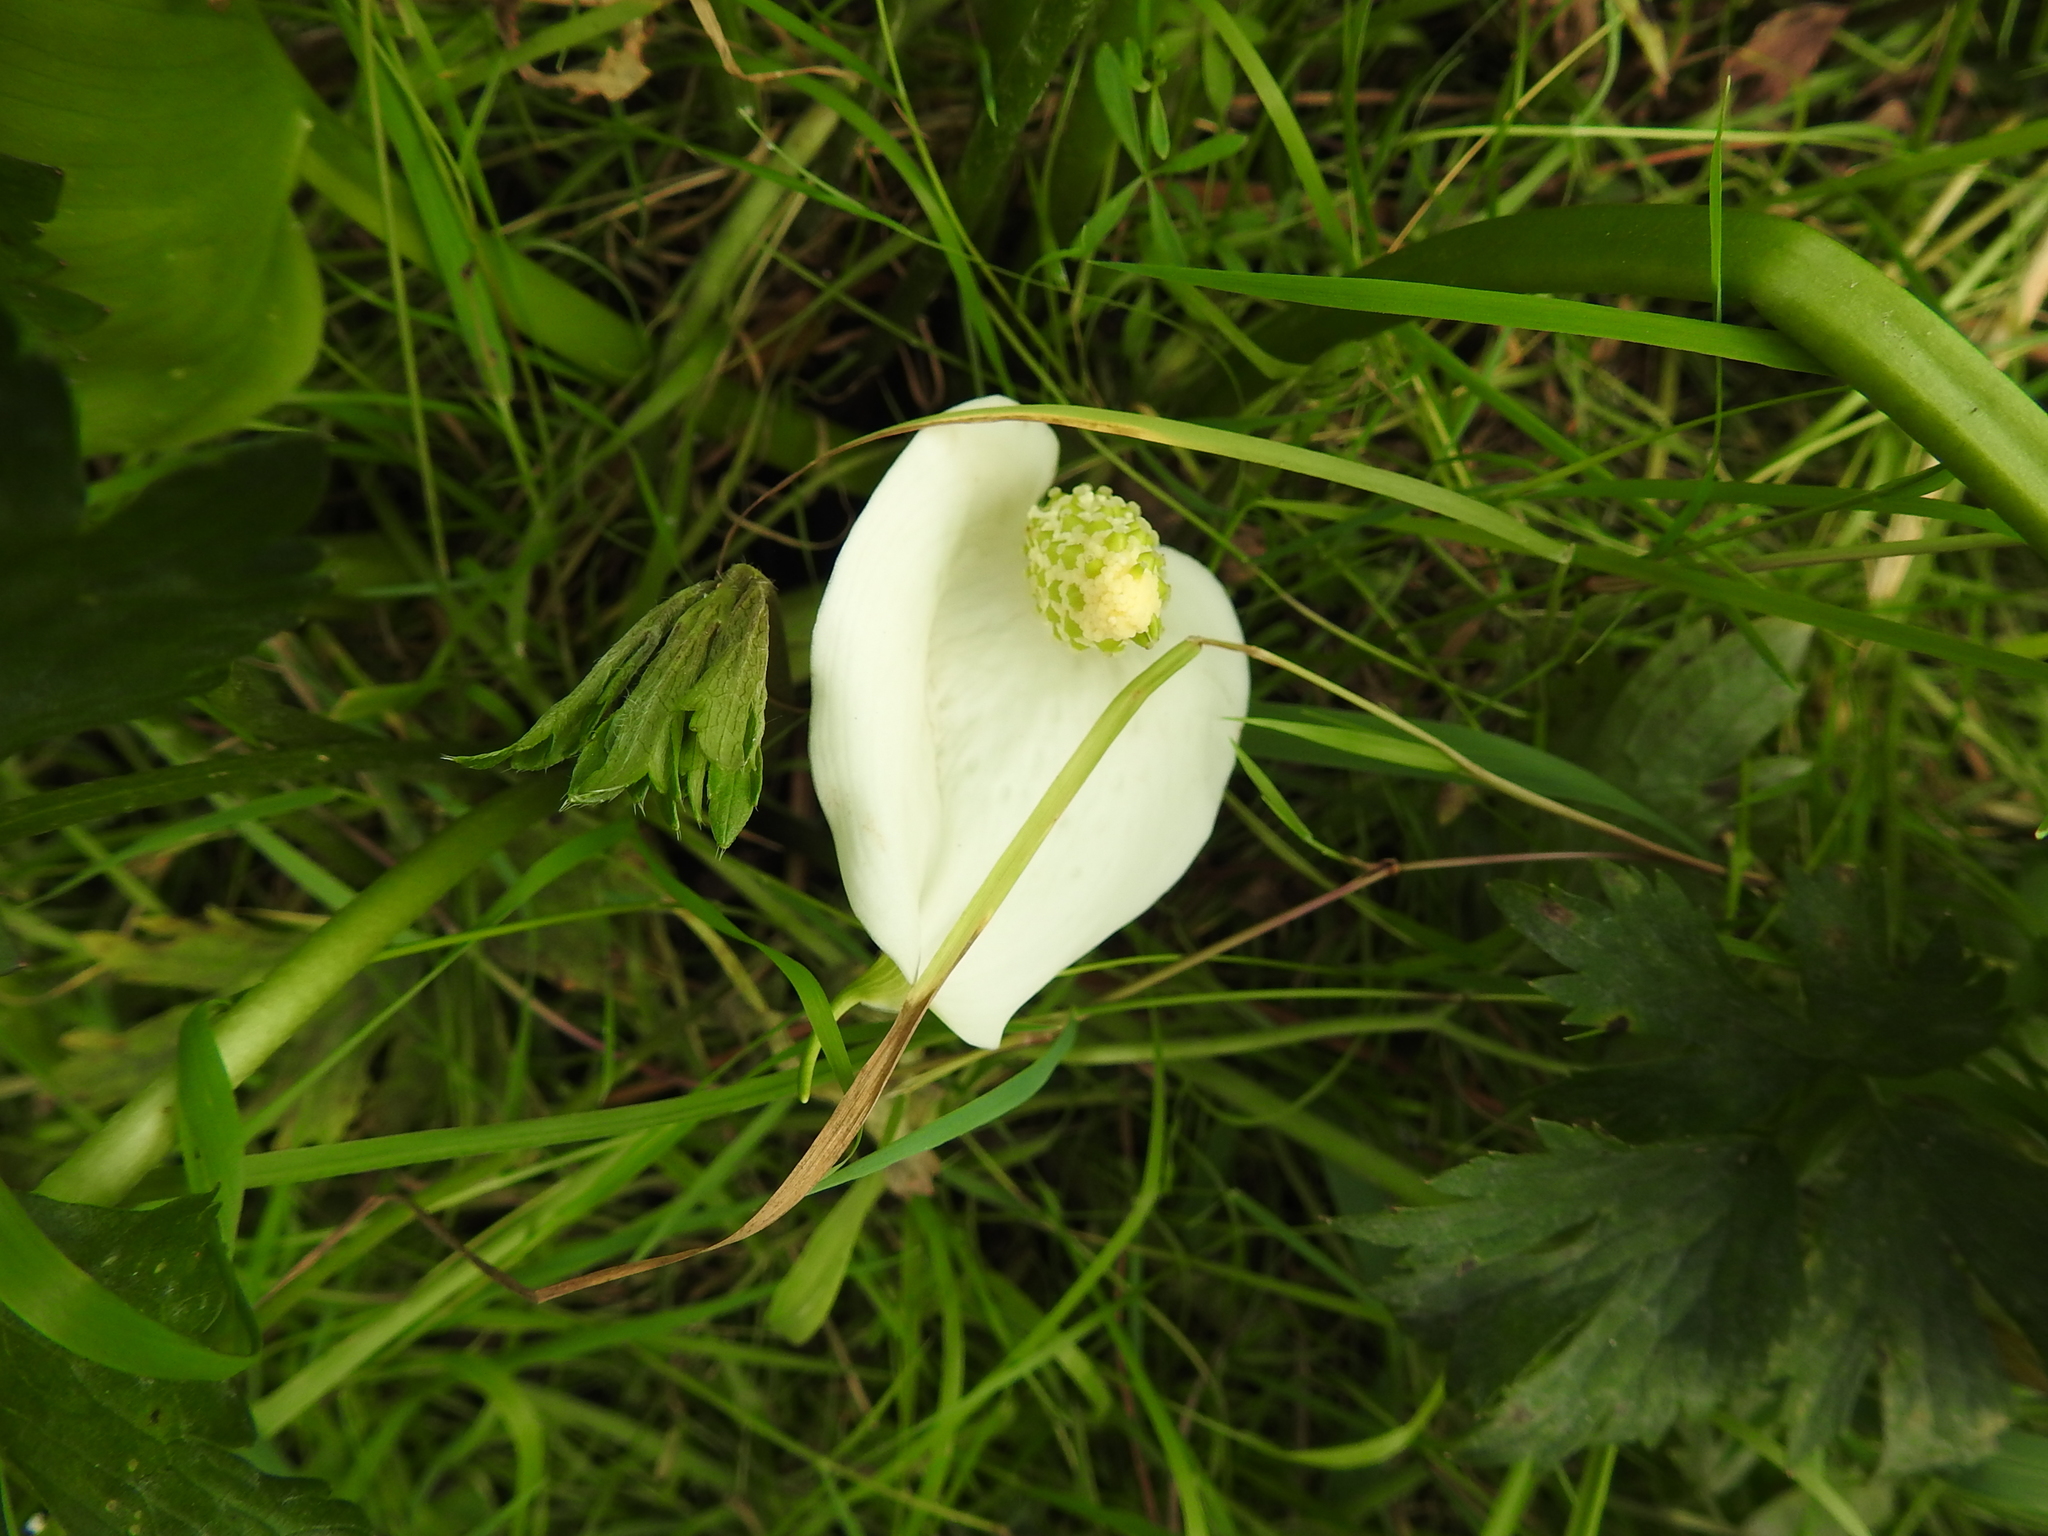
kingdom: Plantae
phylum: Tracheophyta
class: Liliopsida
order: Alismatales
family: Araceae
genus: Calla
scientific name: Calla palustris
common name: Bog arum
